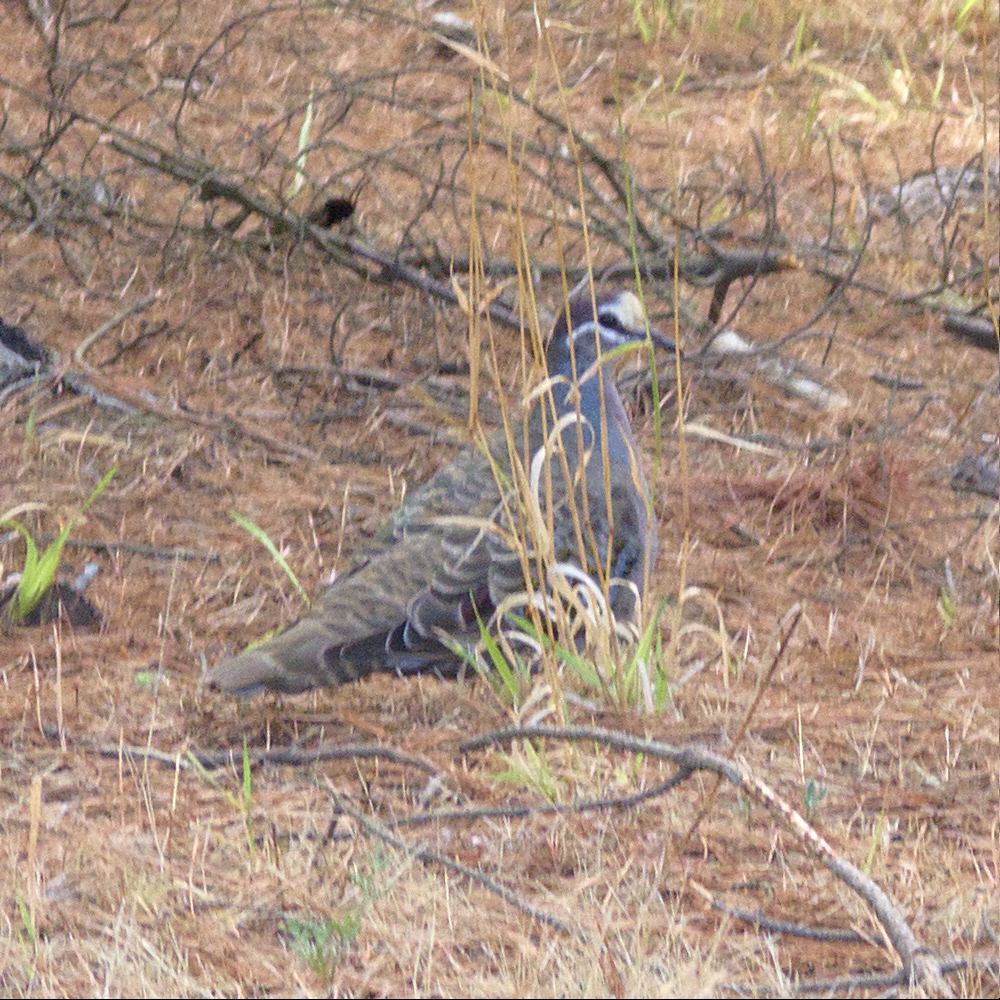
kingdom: Animalia
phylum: Chordata
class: Aves
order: Columbiformes
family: Columbidae
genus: Phaps
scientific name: Phaps chalcoptera
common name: Common bronzewing
